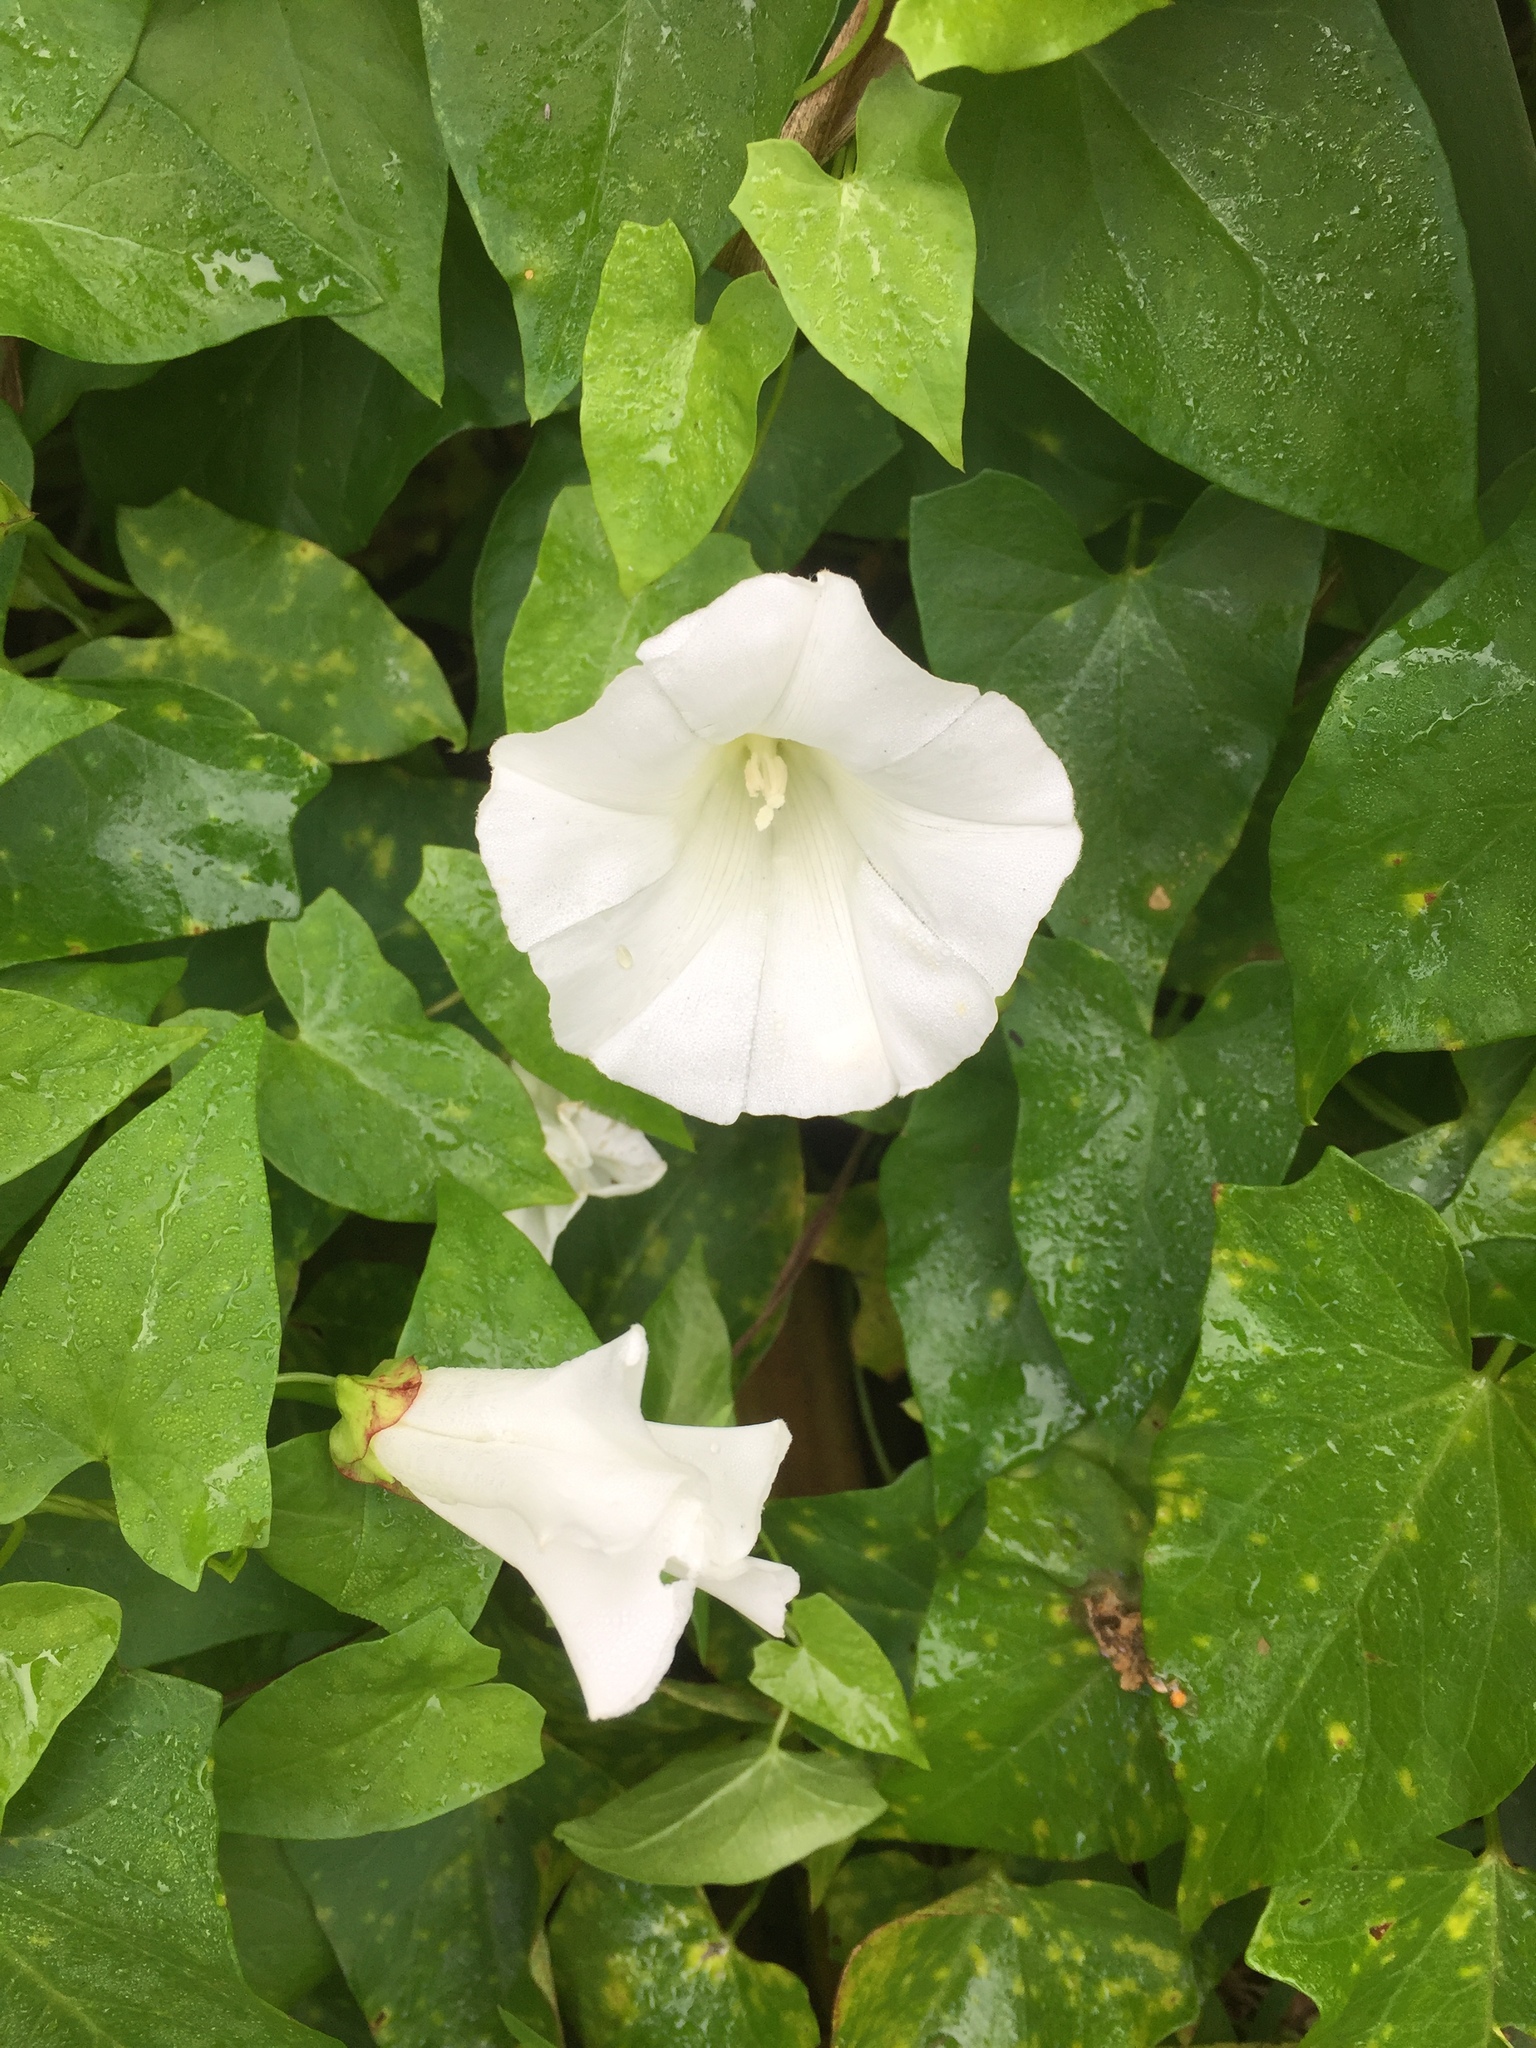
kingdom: Plantae
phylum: Tracheophyta
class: Magnoliopsida
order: Solanales
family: Convolvulaceae
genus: Calystegia
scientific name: Calystegia sepium
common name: Hedge bindweed
